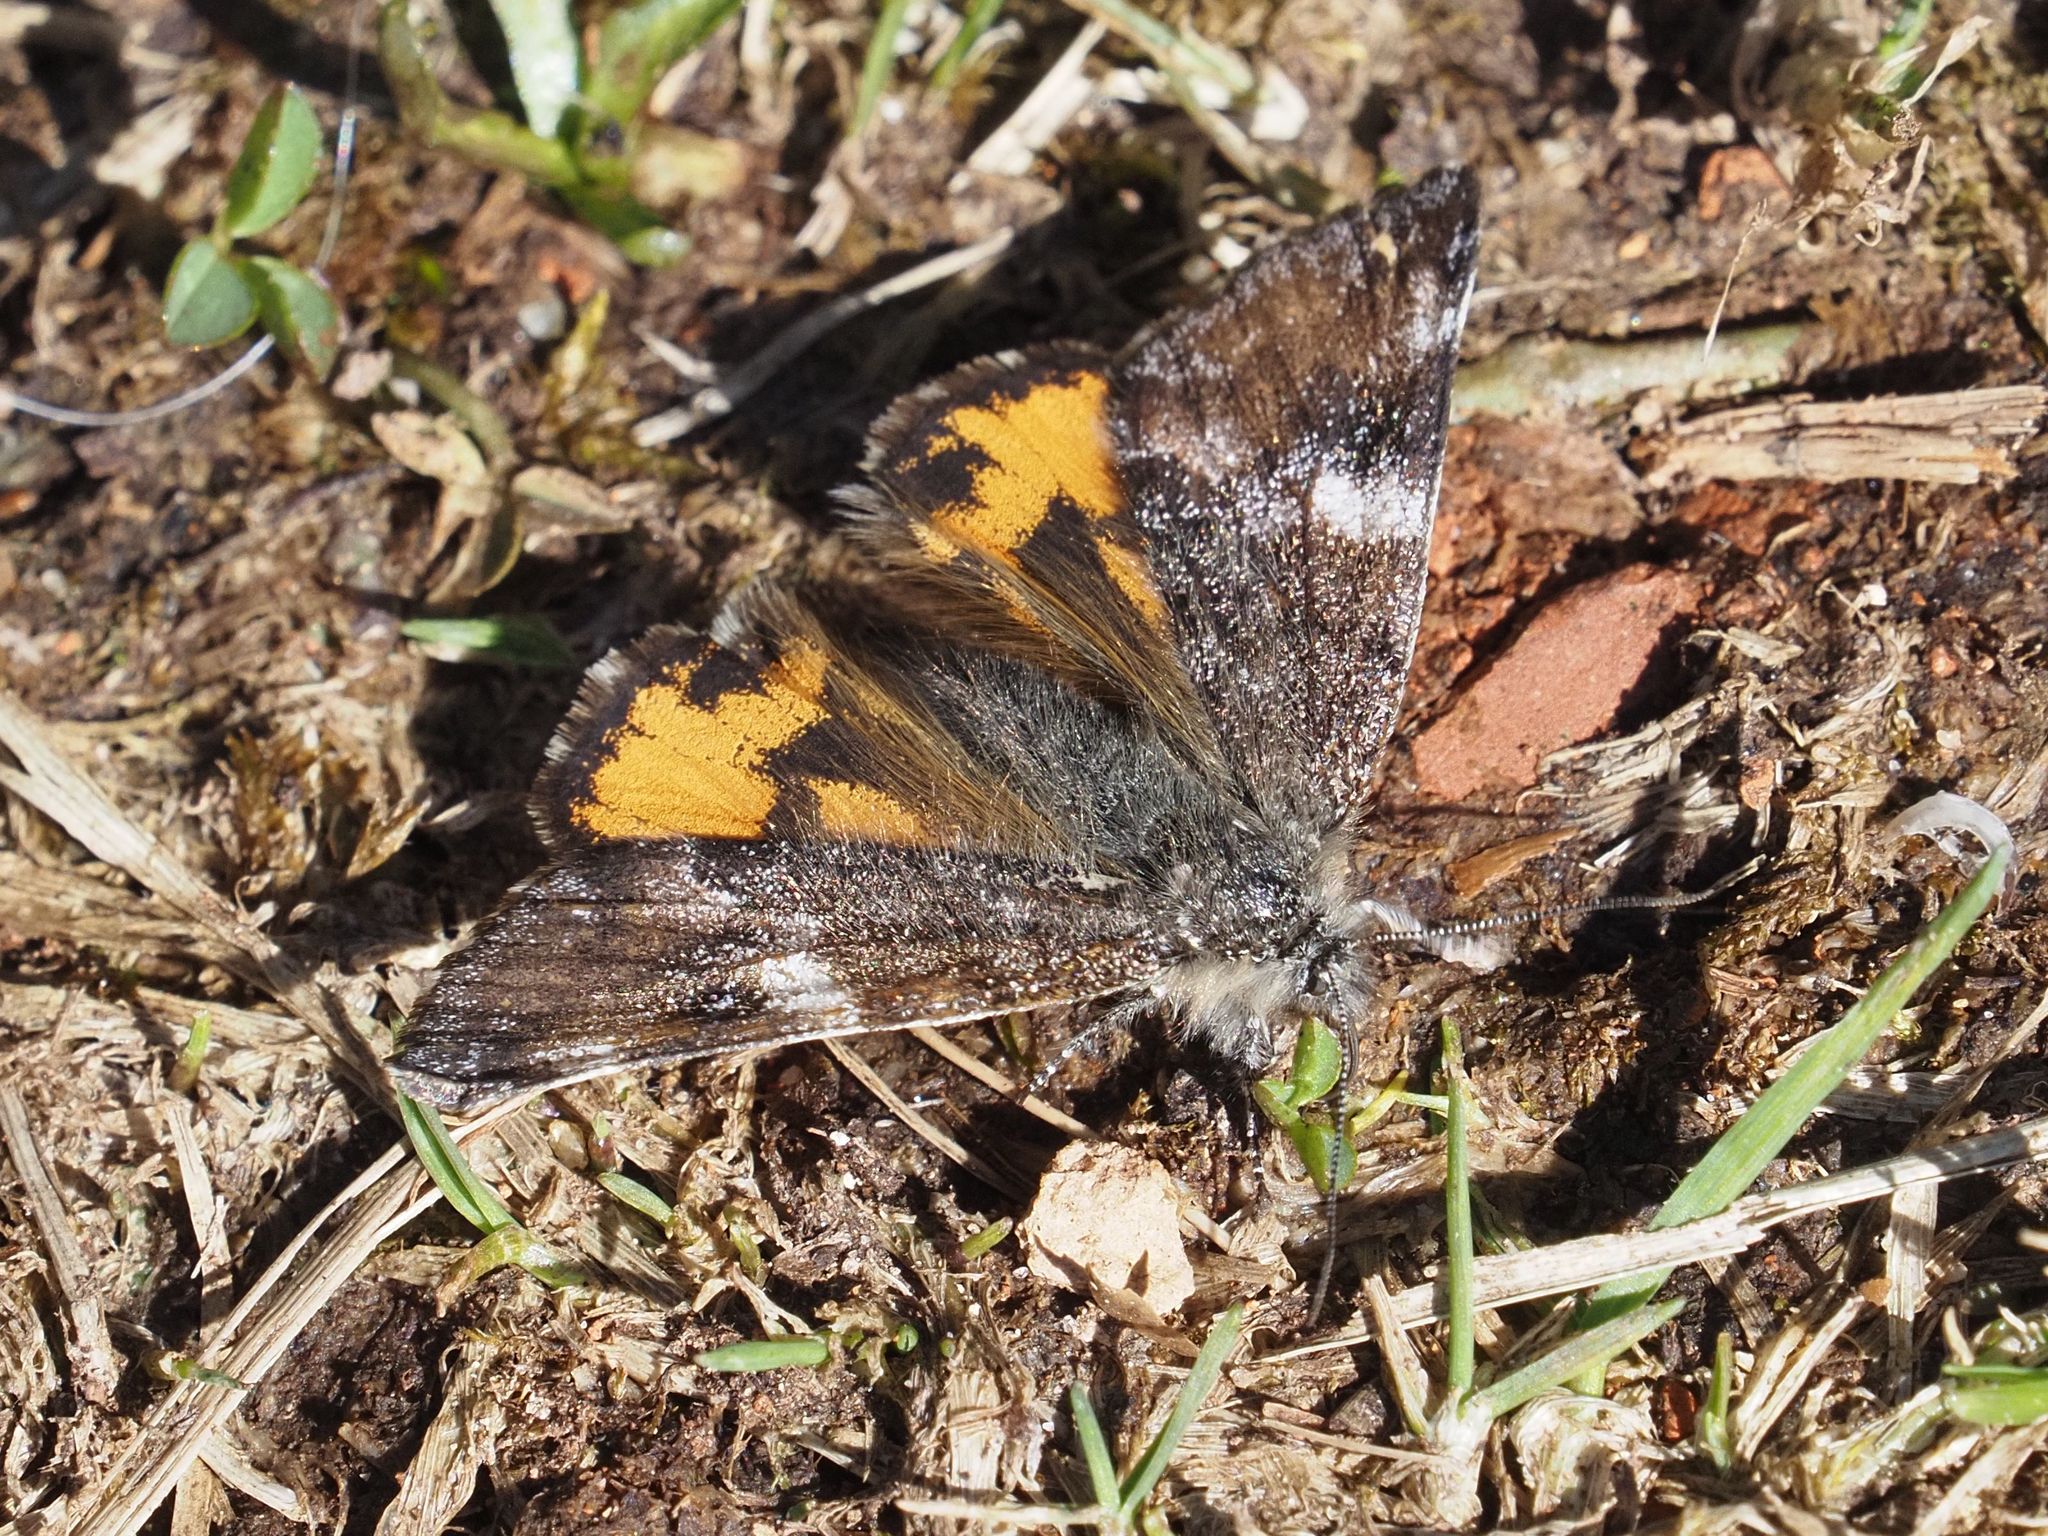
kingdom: Animalia
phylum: Arthropoda
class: Insecta
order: Lepidoptera
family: Geometridae
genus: Archiearis
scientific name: Archiearis parthenias
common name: Orange underwing
